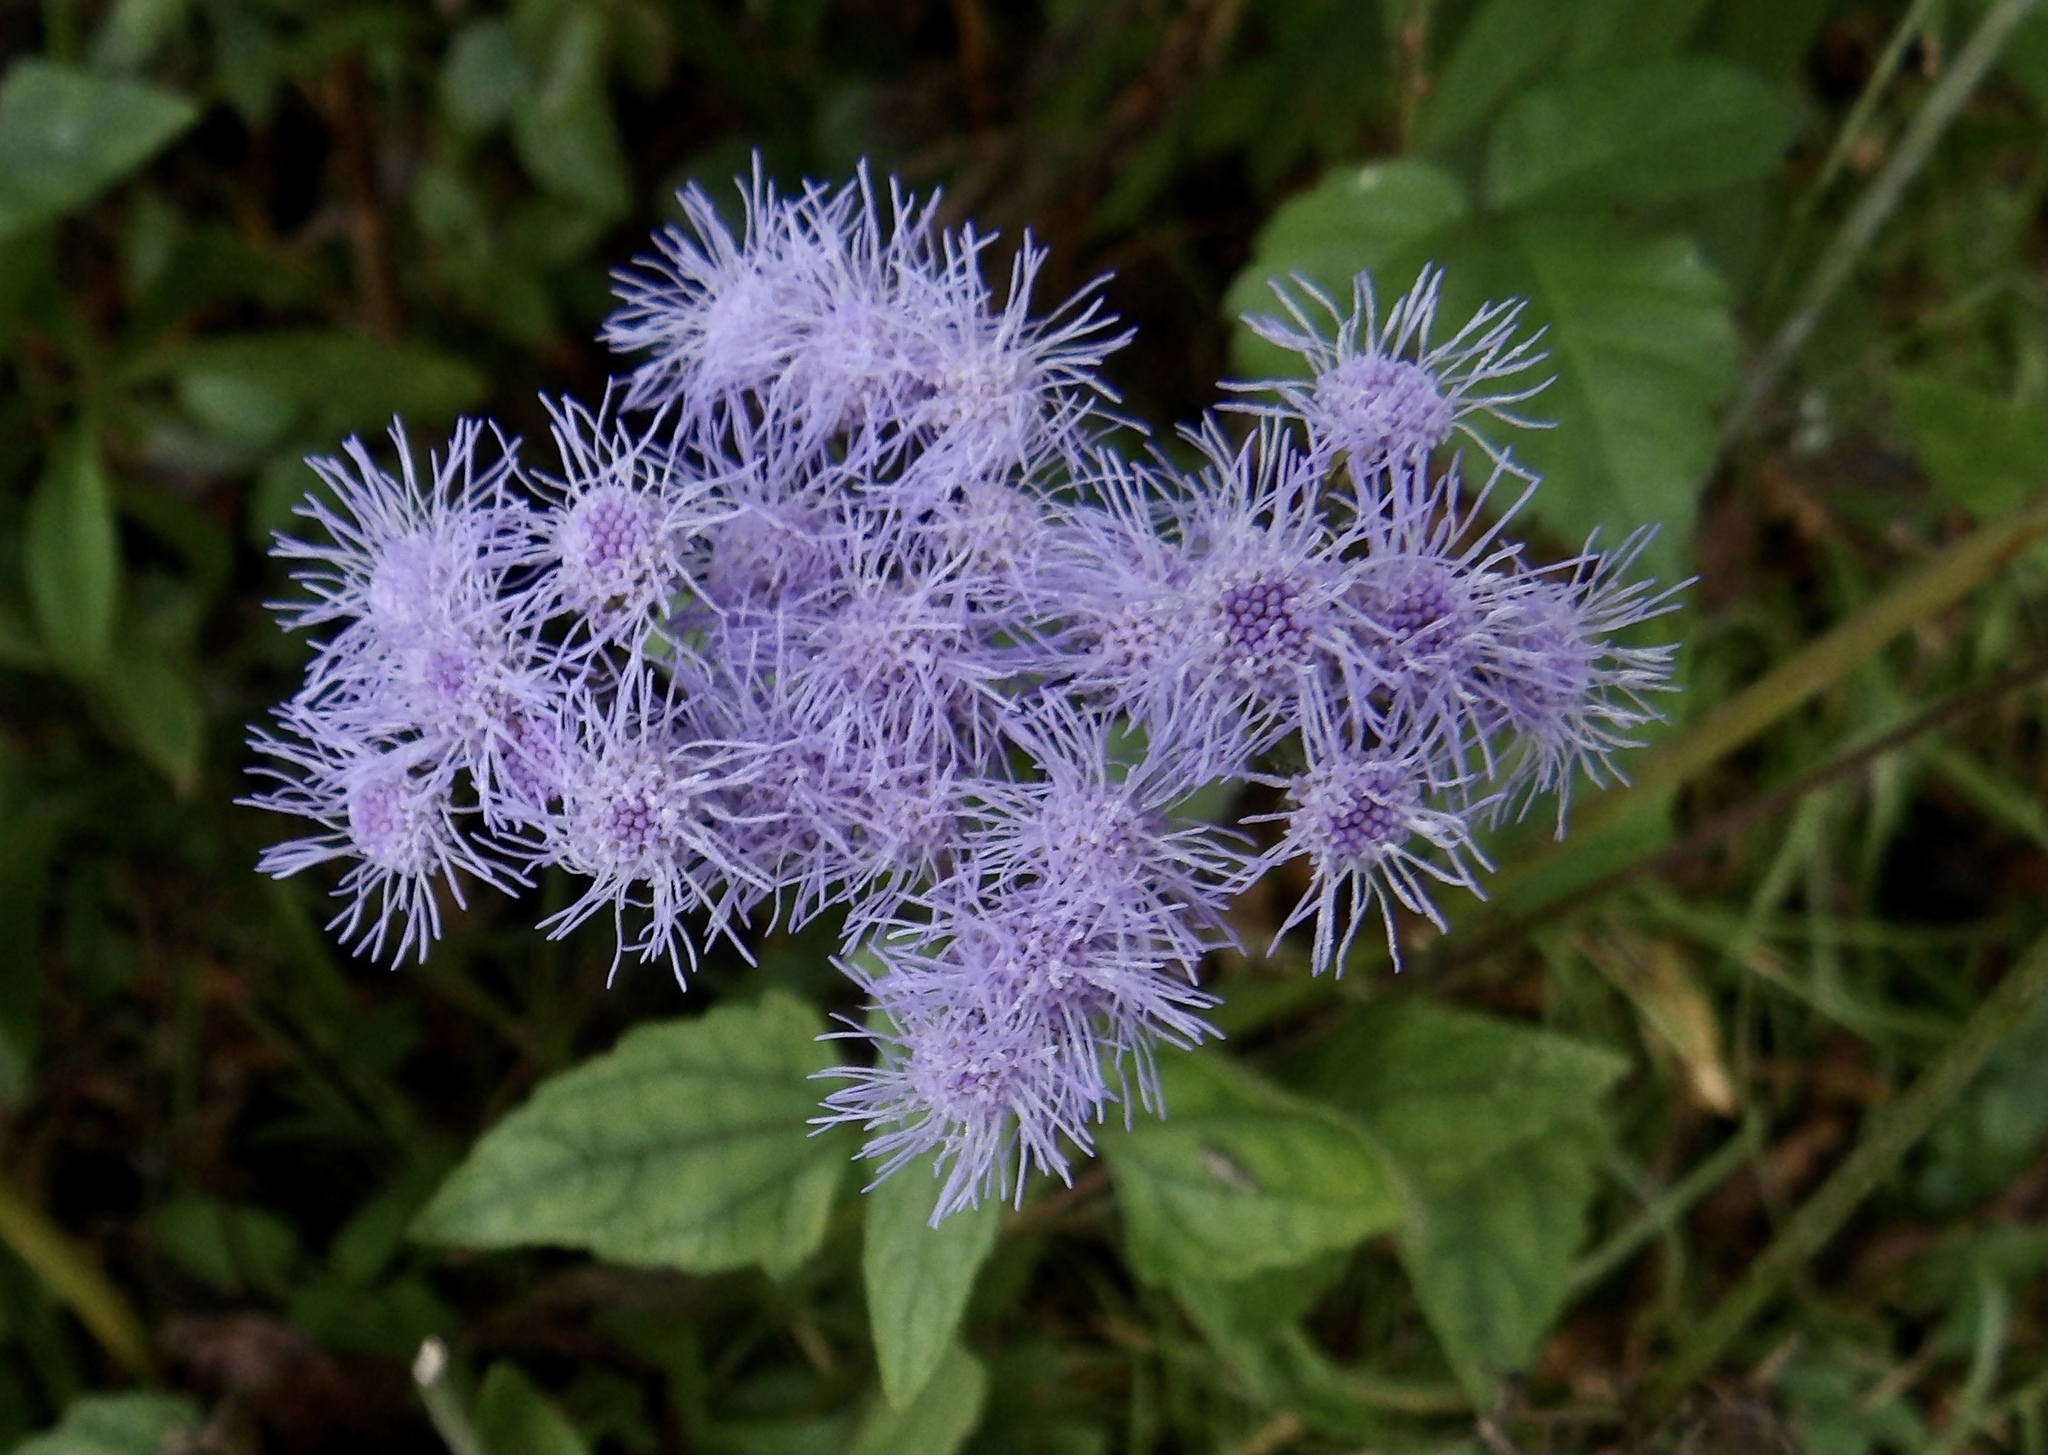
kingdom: Plantae
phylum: Tracheophyta
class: Magnoliopsida
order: Asterales
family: Asteraceae
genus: Conoclinium
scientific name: Conoclinium coelestinum
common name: Blue mistflower
